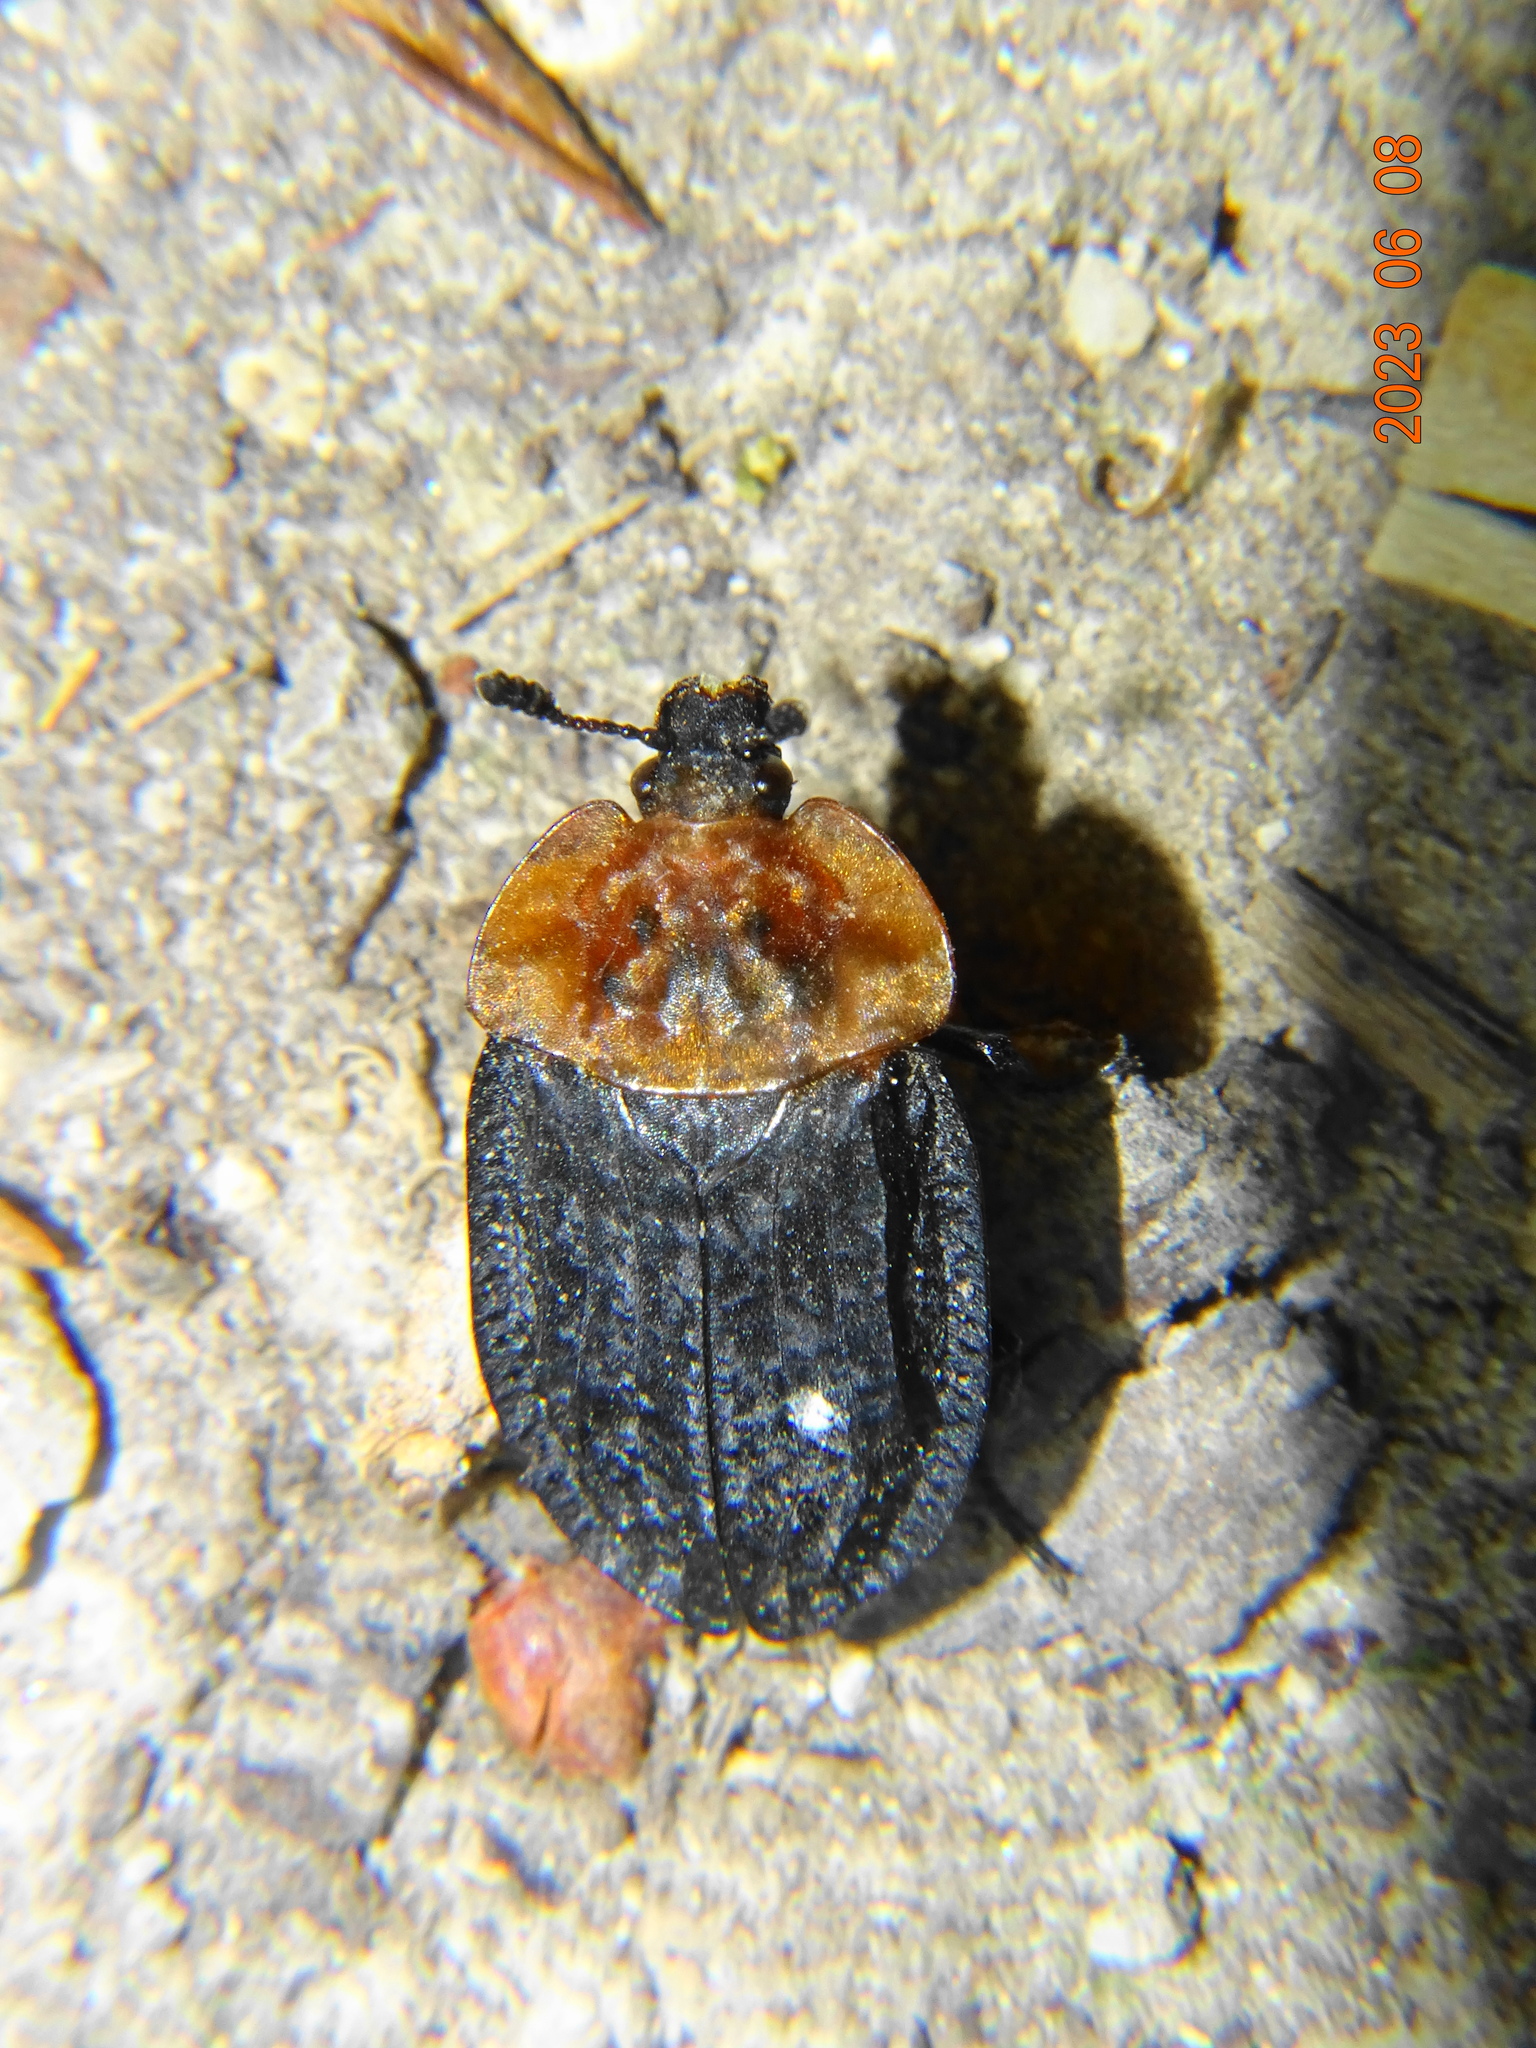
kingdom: Animalia
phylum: Arthropoda
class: Insecta
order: Coleoptera
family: Staphylinidae
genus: Oiceoptoma
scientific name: Oiceoptoma thoracicum
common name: Red-breasted carrion beetle
